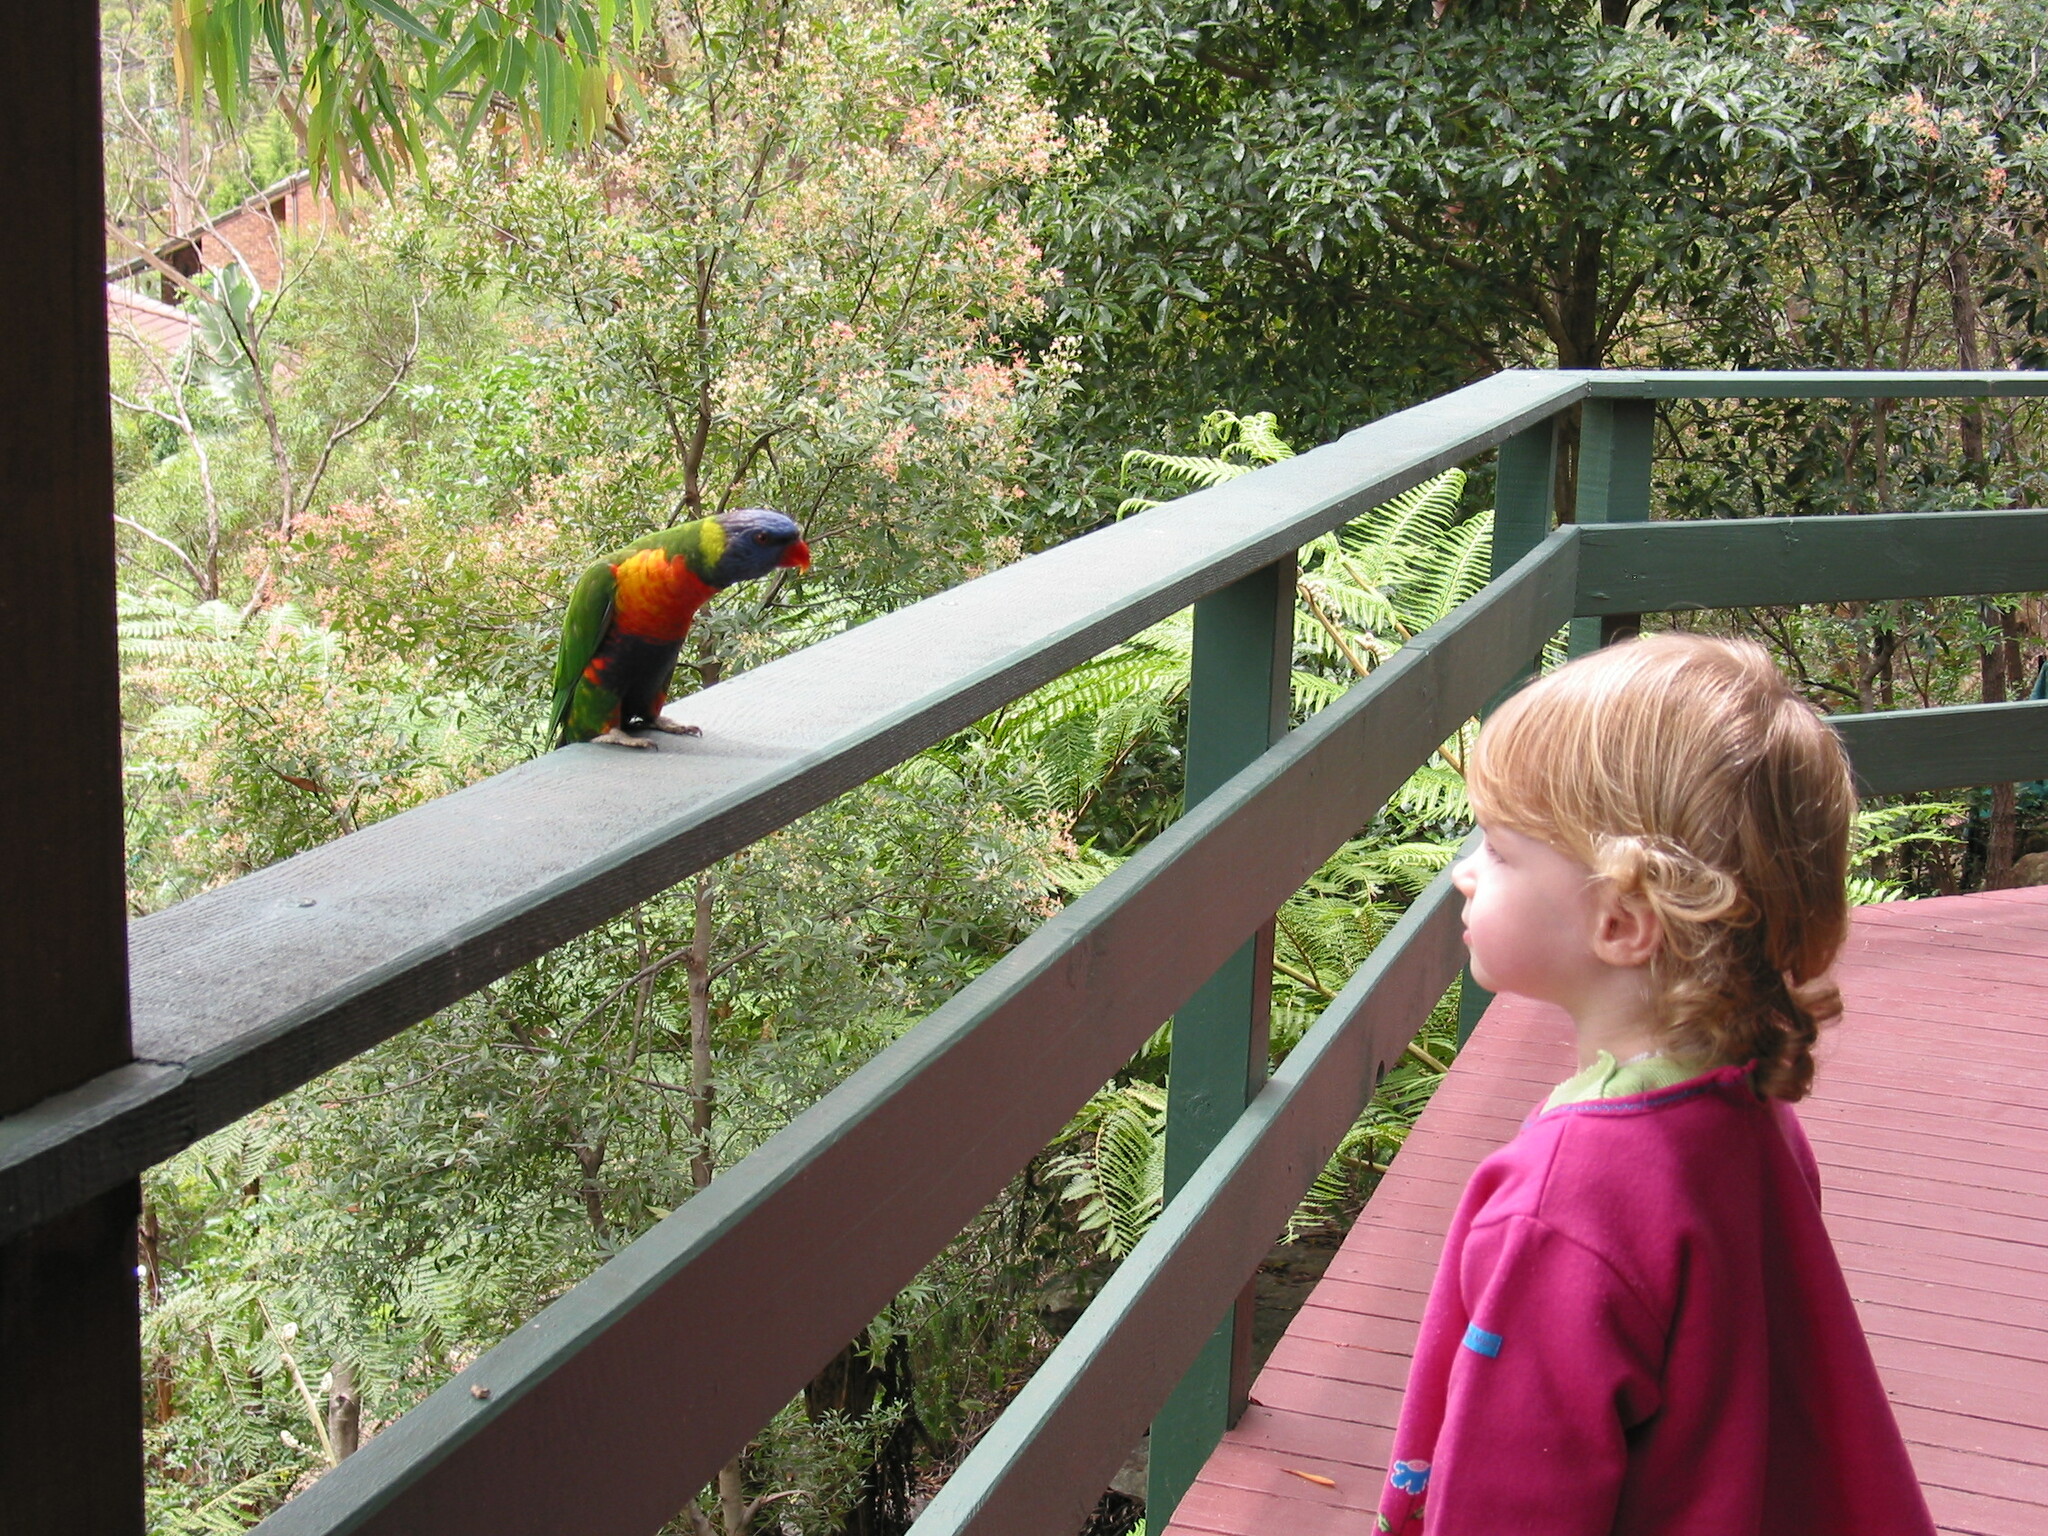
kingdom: Animalia
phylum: Chordata
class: Aves
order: Psittaciformes
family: Psittacidae
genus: Trichoglossus
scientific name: Trichoglossus haematodus
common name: Coconut lorikeet
